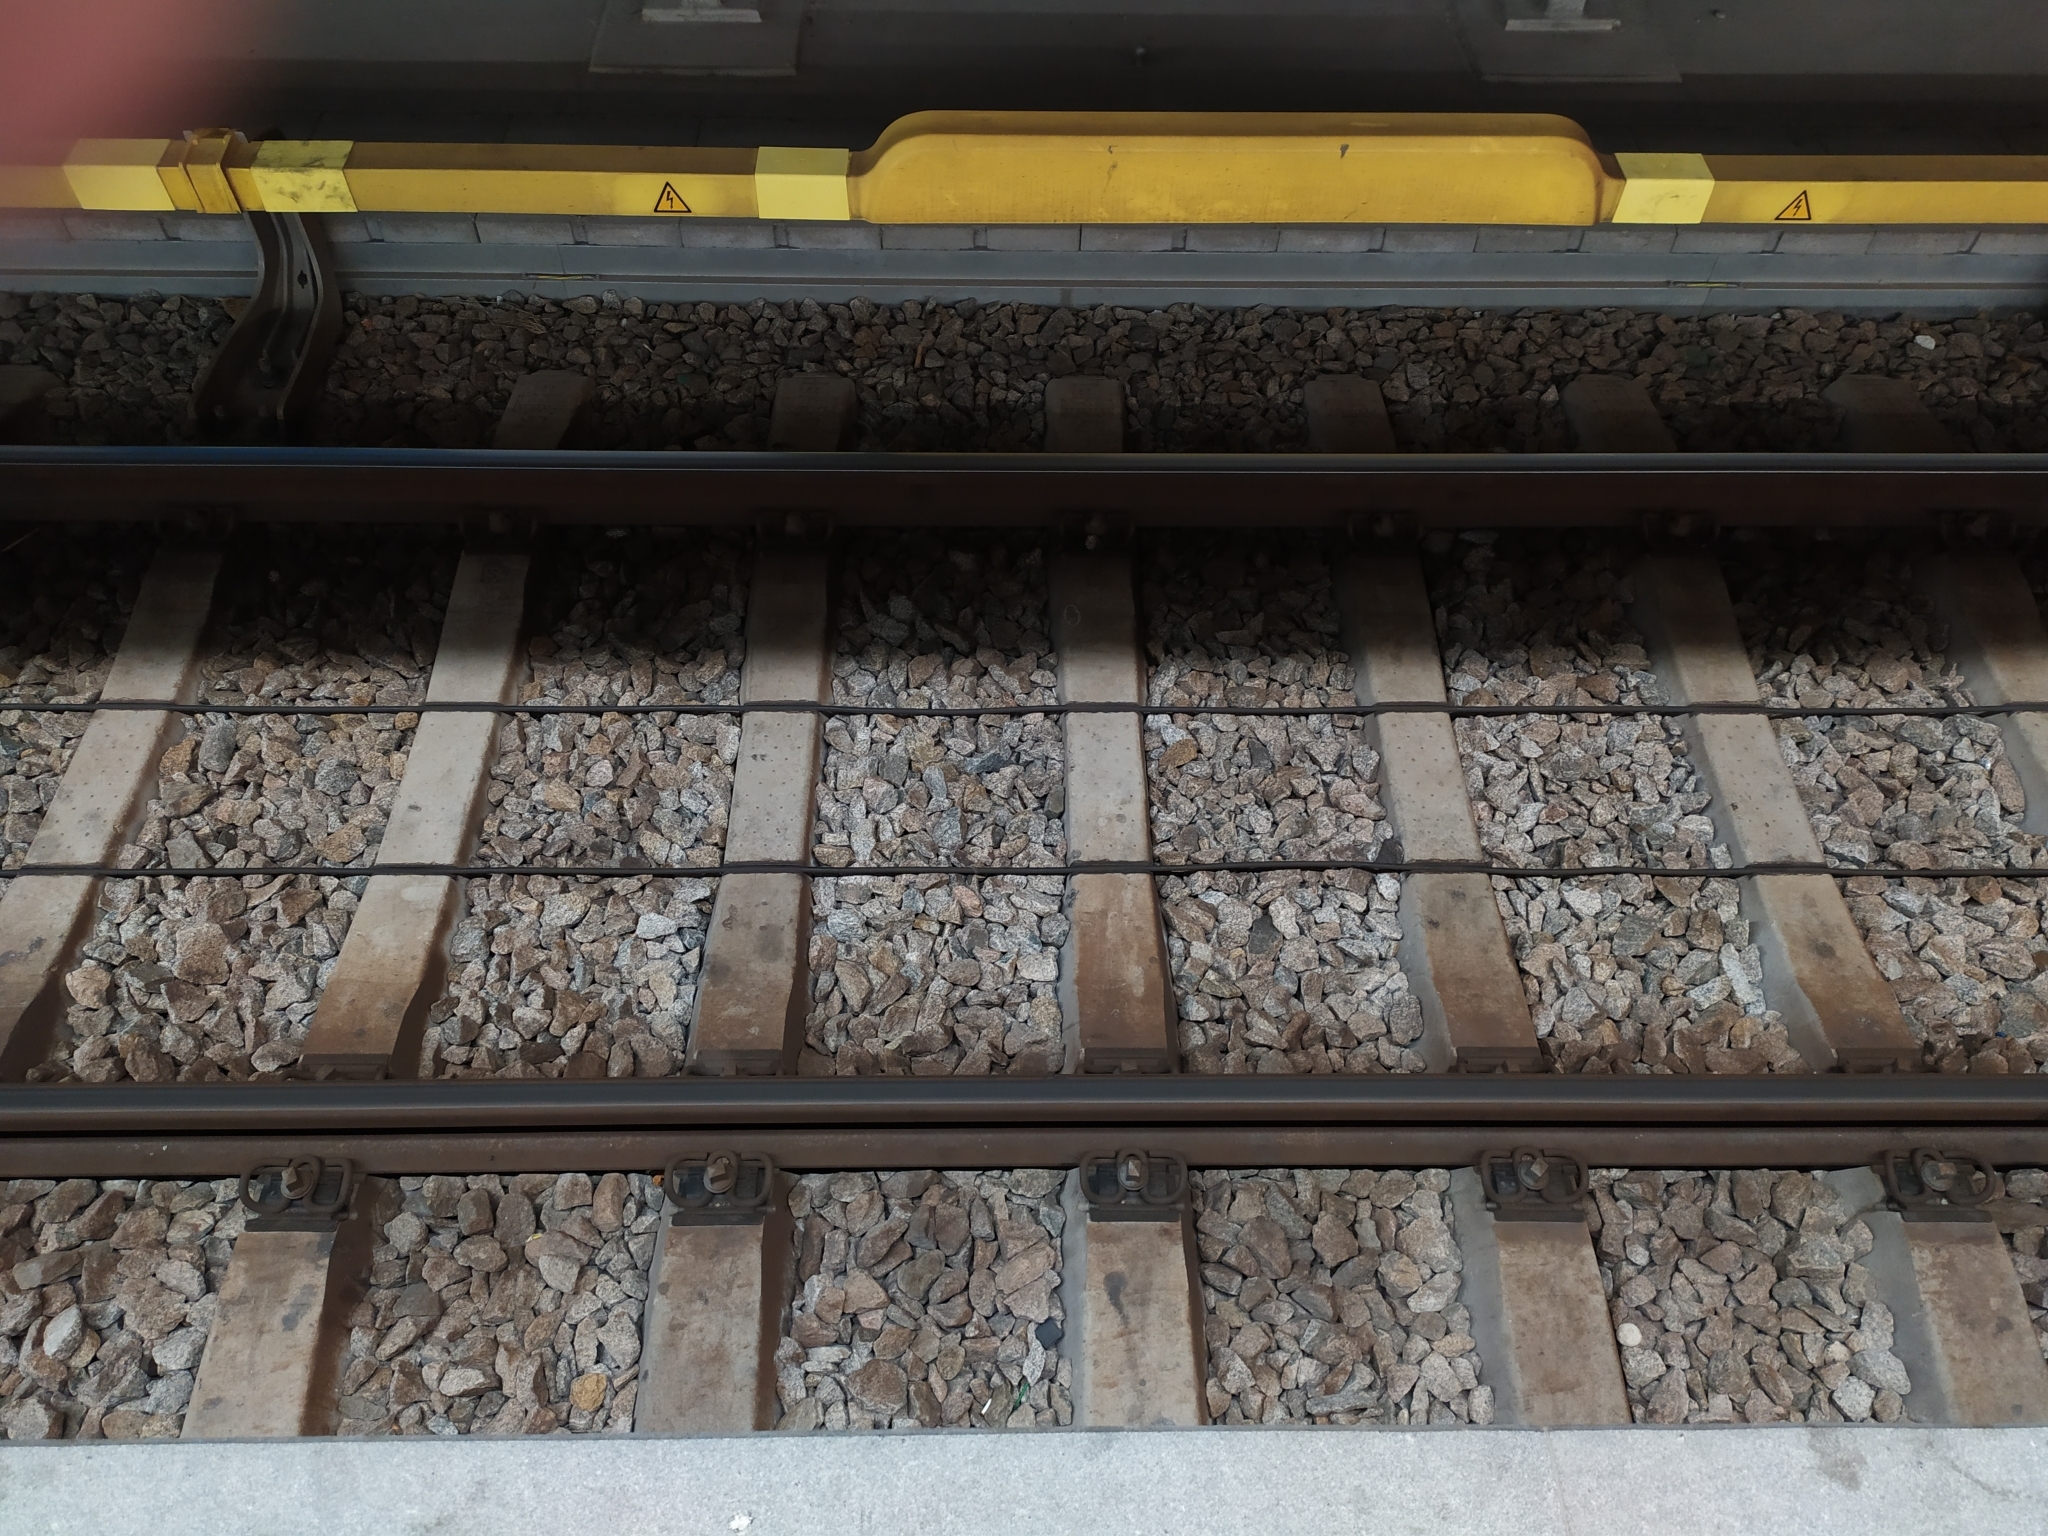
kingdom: Animalia
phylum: Arthropoda
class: Insecta
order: Orthoptera
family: Gryllidae
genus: Eumodicogryllus
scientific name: Eumodicogryllus bordigalensis
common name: Bordeaux cricket
